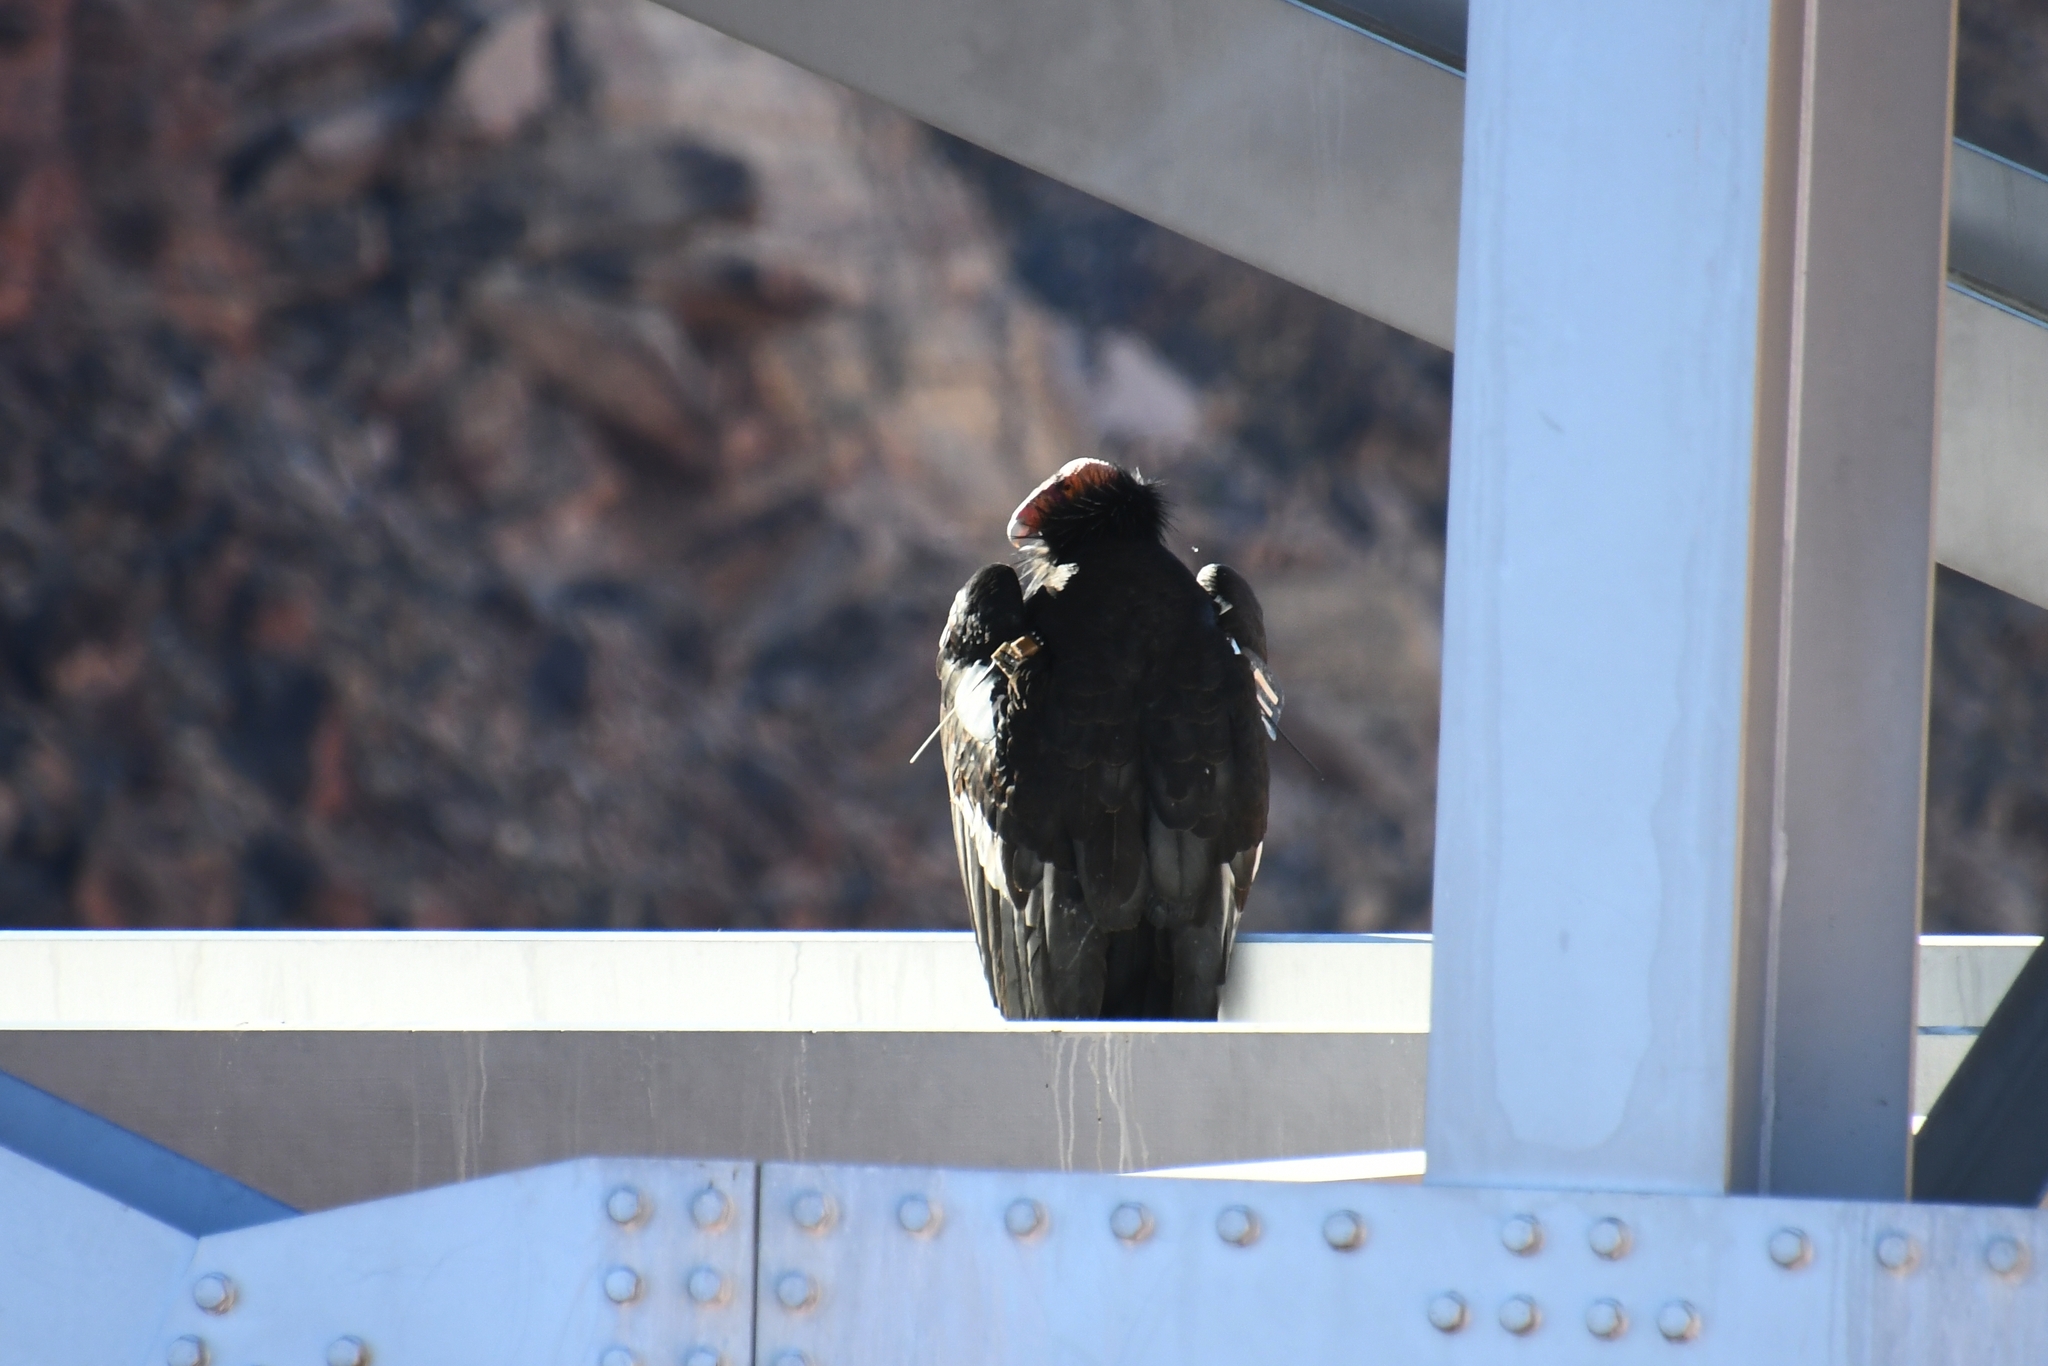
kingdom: Animalia
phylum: Chordata
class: Aves
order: Accipitriformes
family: Cathartidae
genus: Gymnogyps
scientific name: Gymnogyps californianus
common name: California condor
